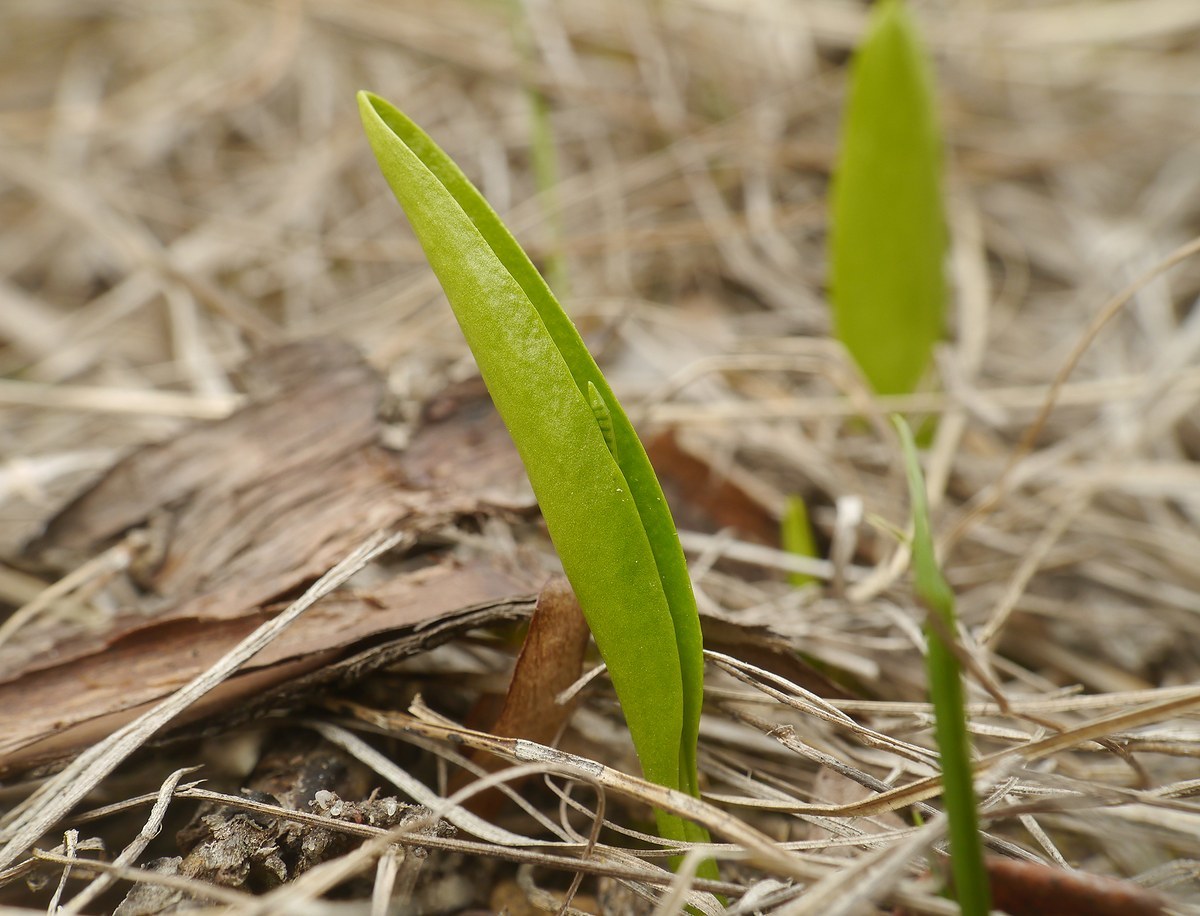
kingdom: Plantae
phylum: Tracheophyta
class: Polypodiopsida
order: Ophioglossales
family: Ophioglossaceae
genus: Ophioglossum
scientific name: Ophioglossum vulgatum
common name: Adder's-tongue
